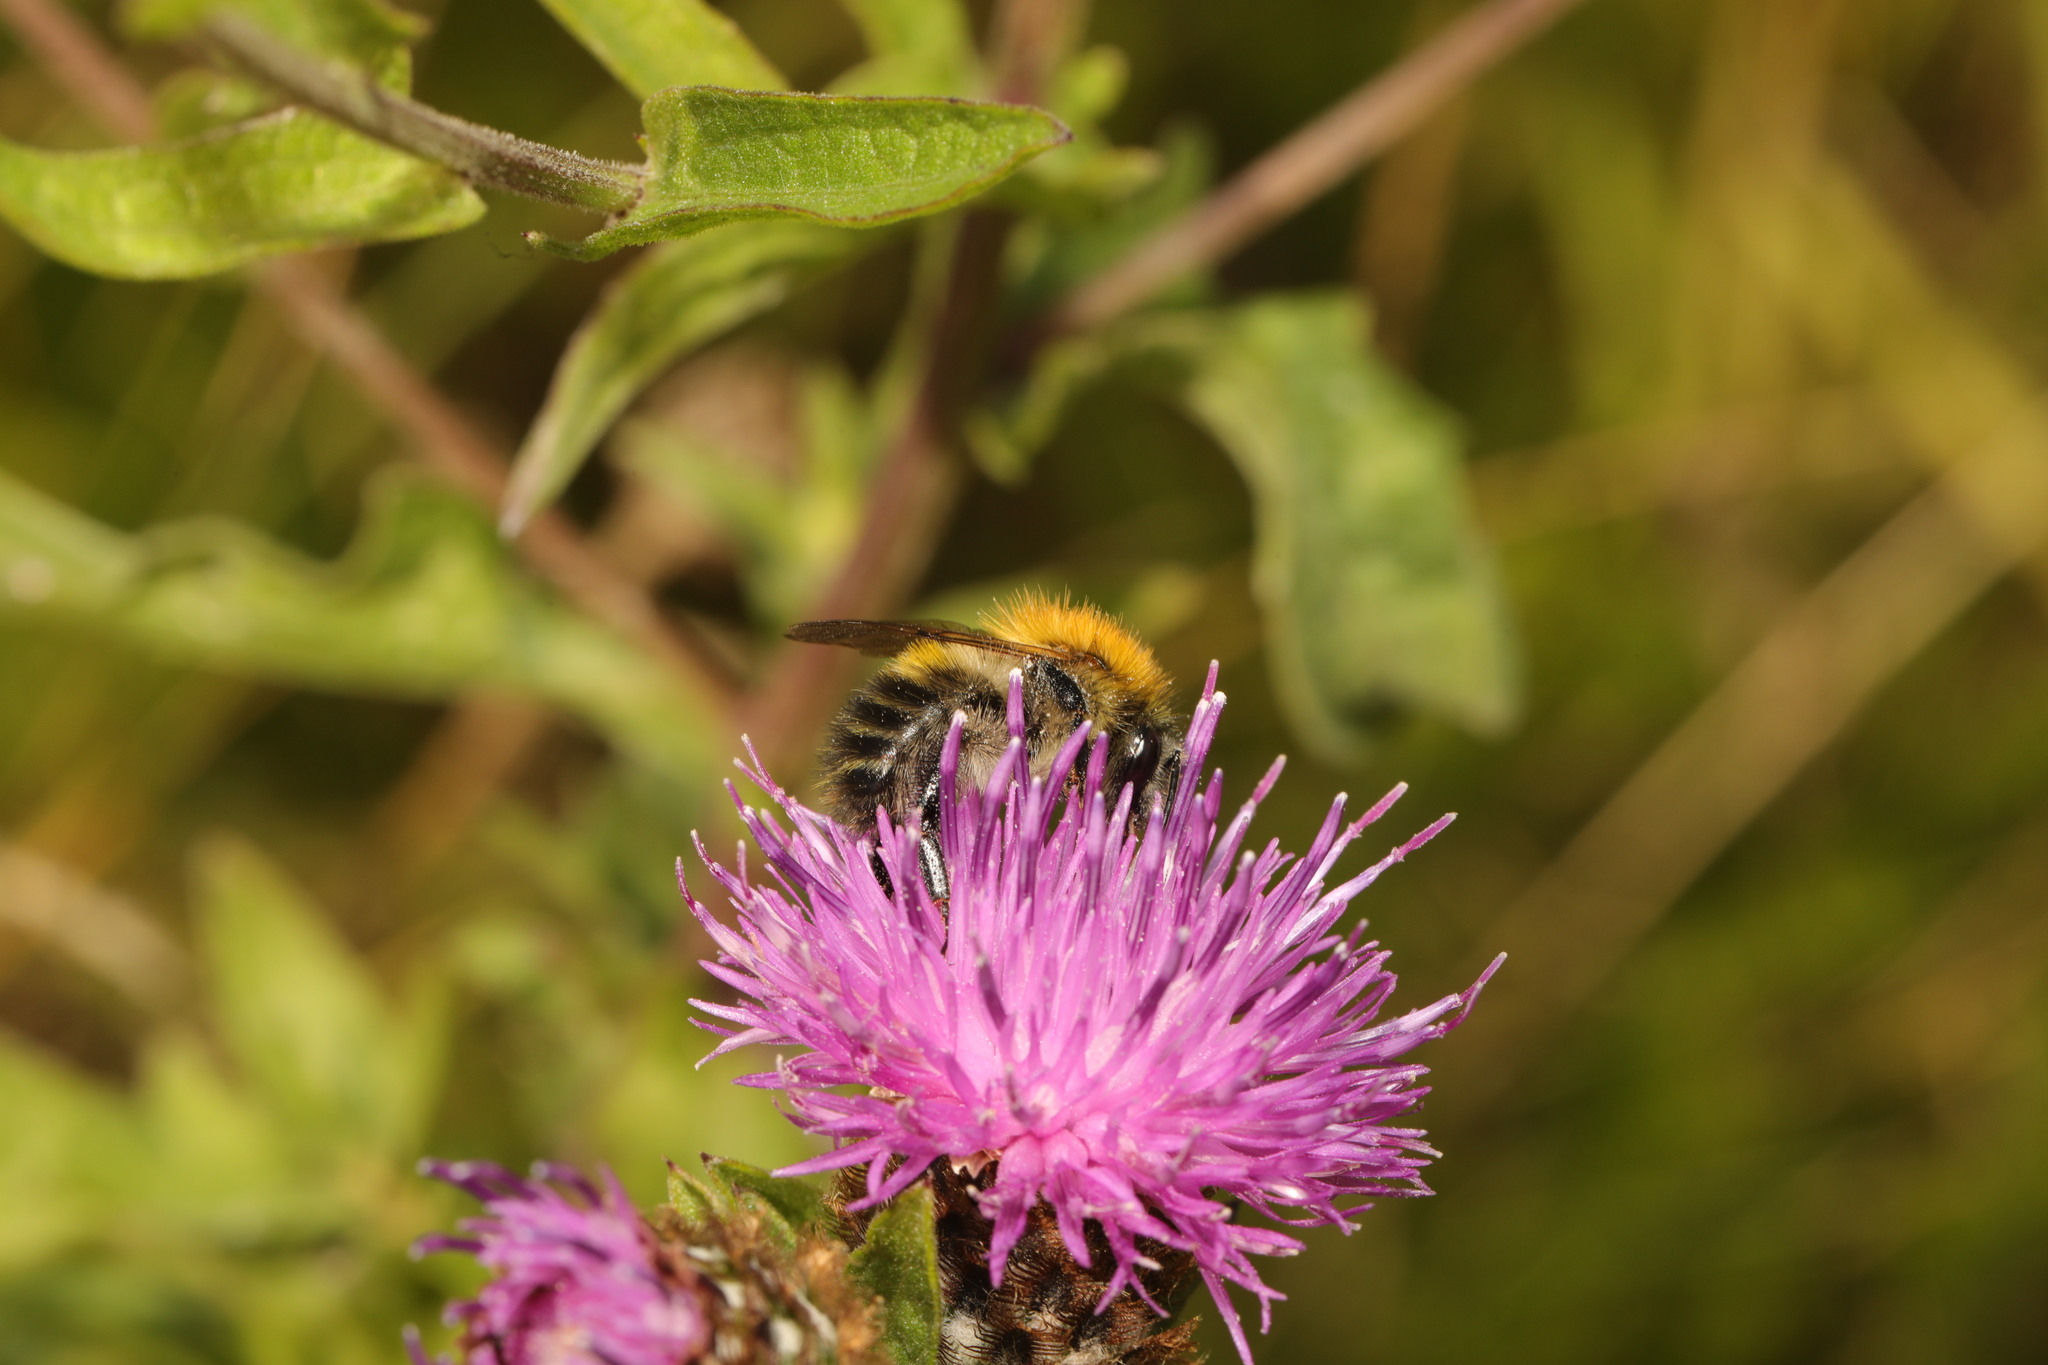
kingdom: Animalia
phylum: Arthropoda
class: Insecta
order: Hymenoptera
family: Apidae
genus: Bombus
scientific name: Bombus pascuorum
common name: Common carder bee
